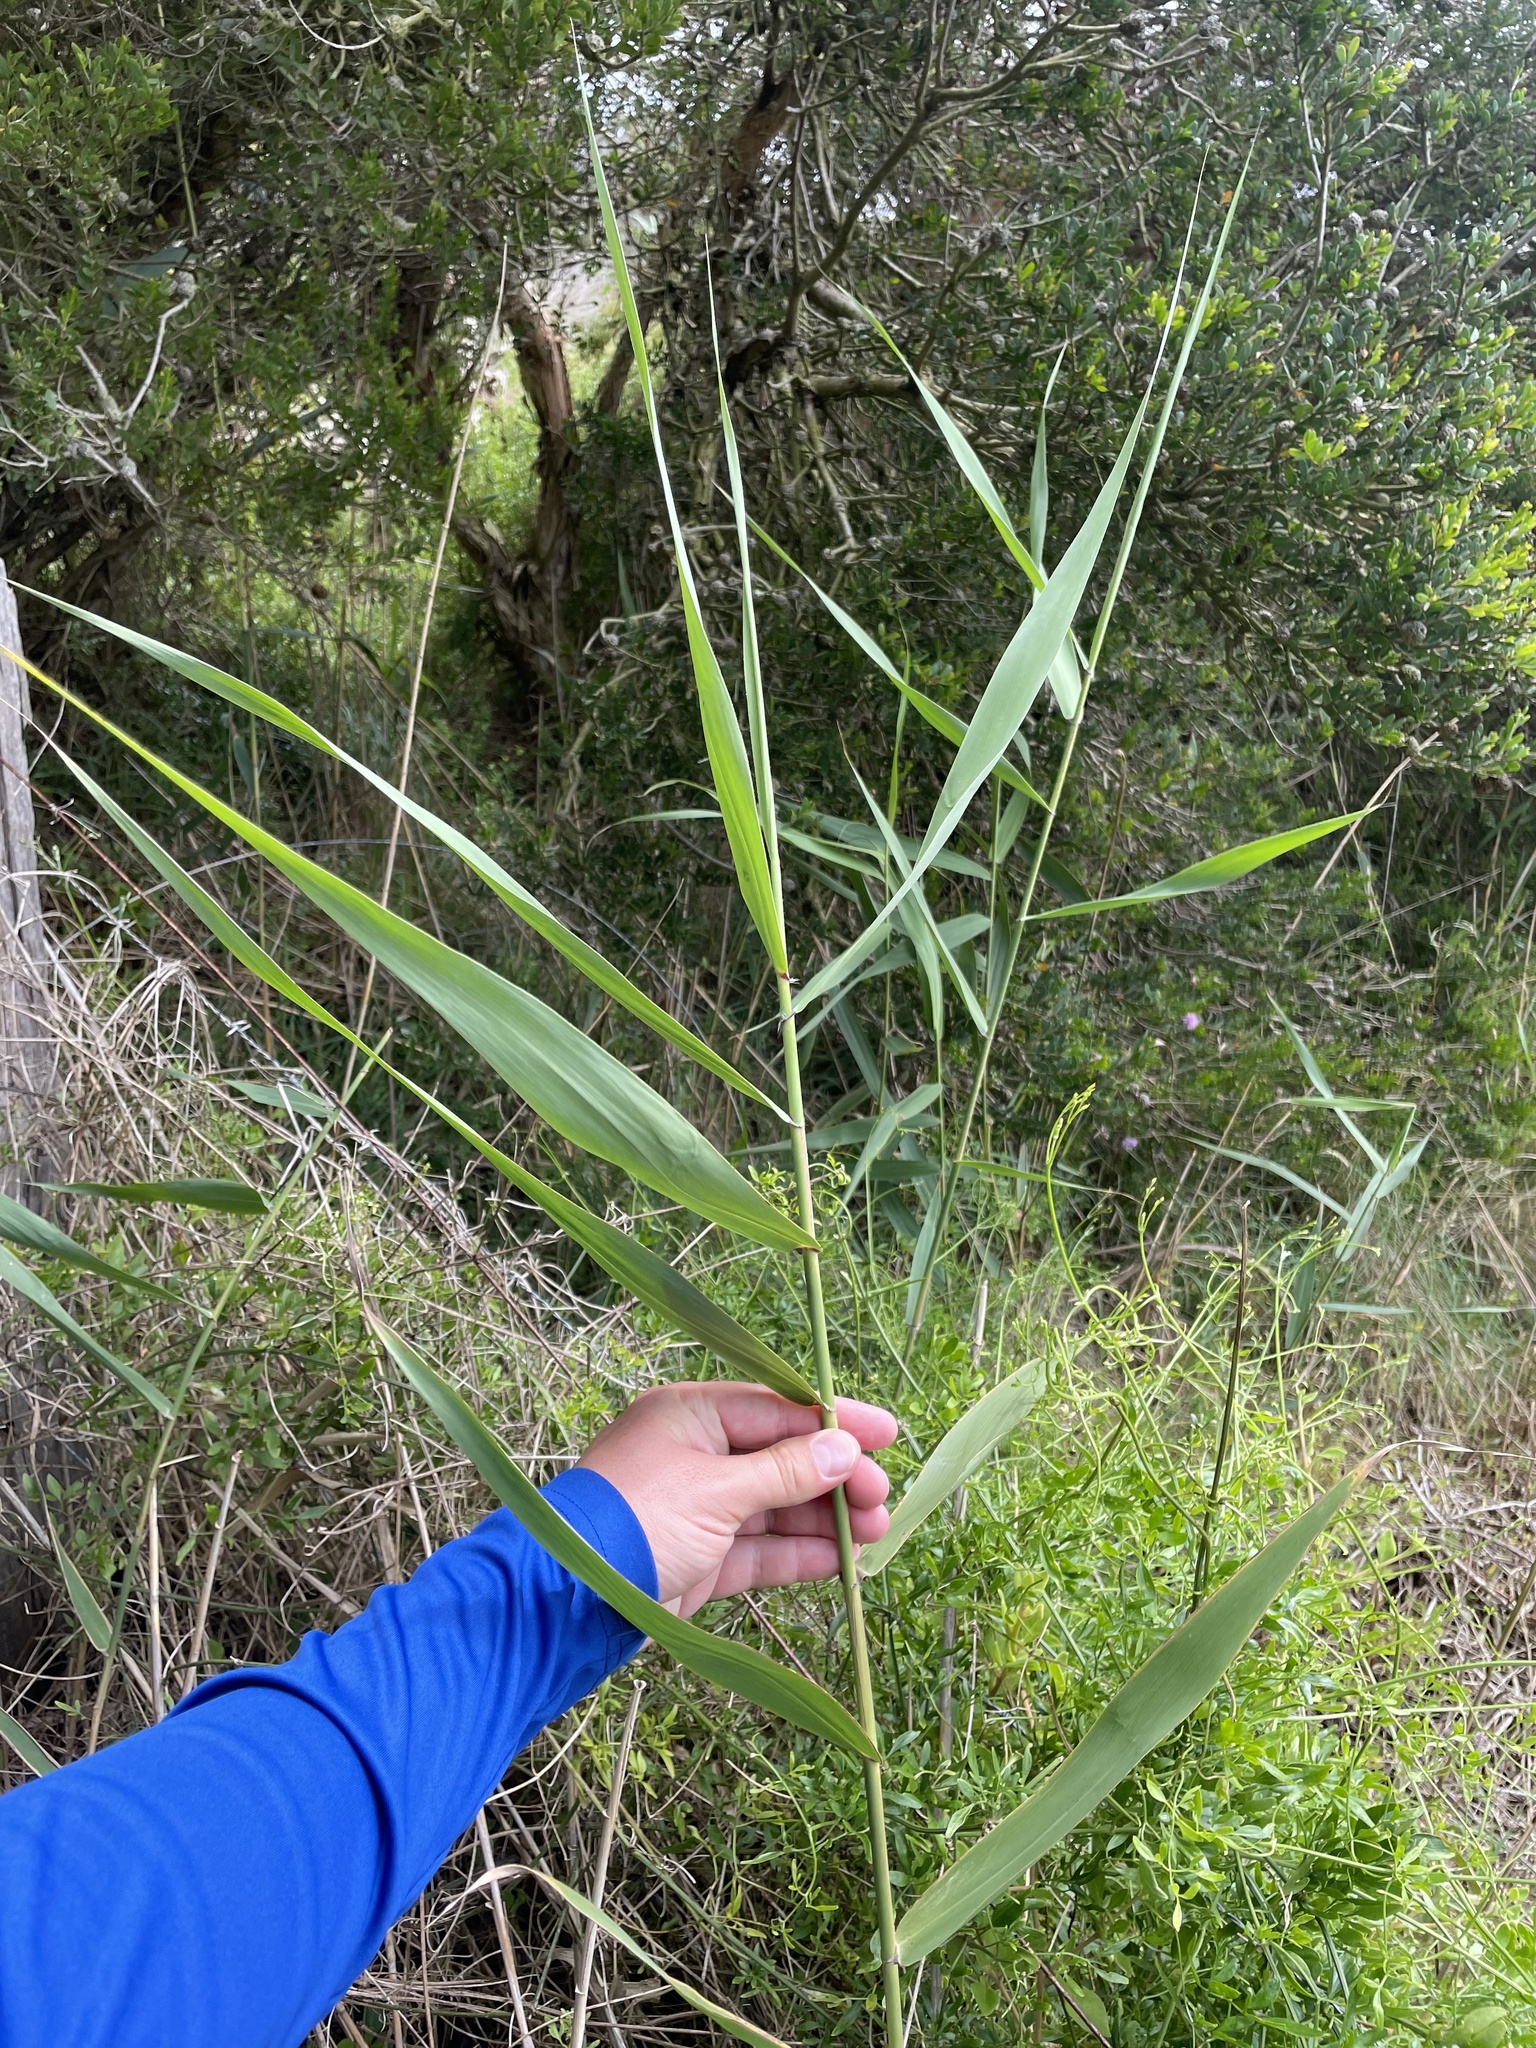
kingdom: Plantae
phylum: Tracheophyta
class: Liliopsida
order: Poales
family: Poaceae
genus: Phragmites
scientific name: Phragmites australis
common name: Common reed
